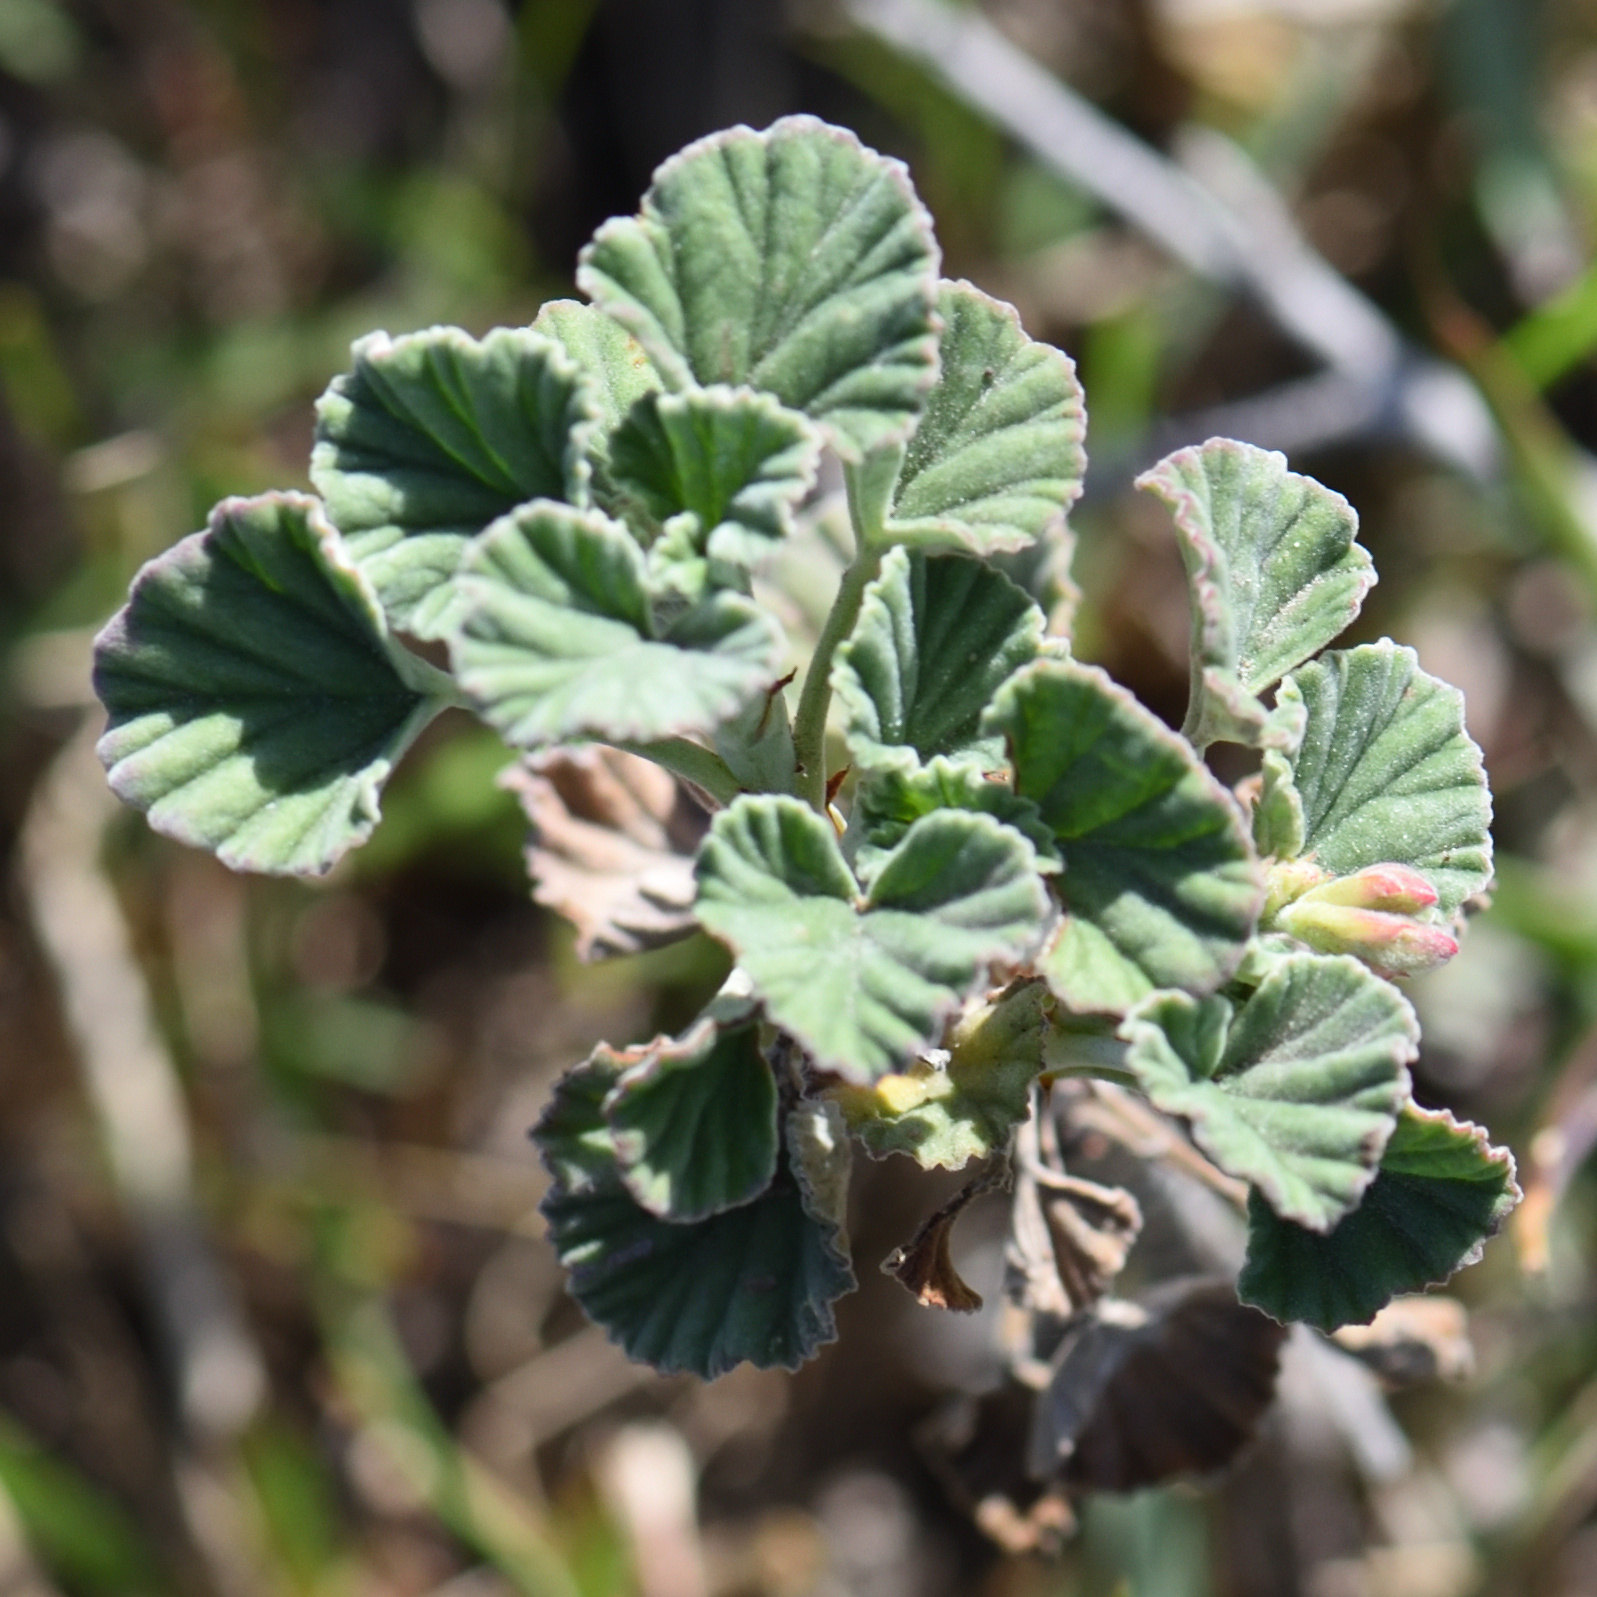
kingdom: Plantae
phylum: Tracheophyta
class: Magnoliopsida
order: Geraniales
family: Geraniaceae
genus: Pelargonium
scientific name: Pelargonium reniforme
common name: Kidney-leaf pelargonium
